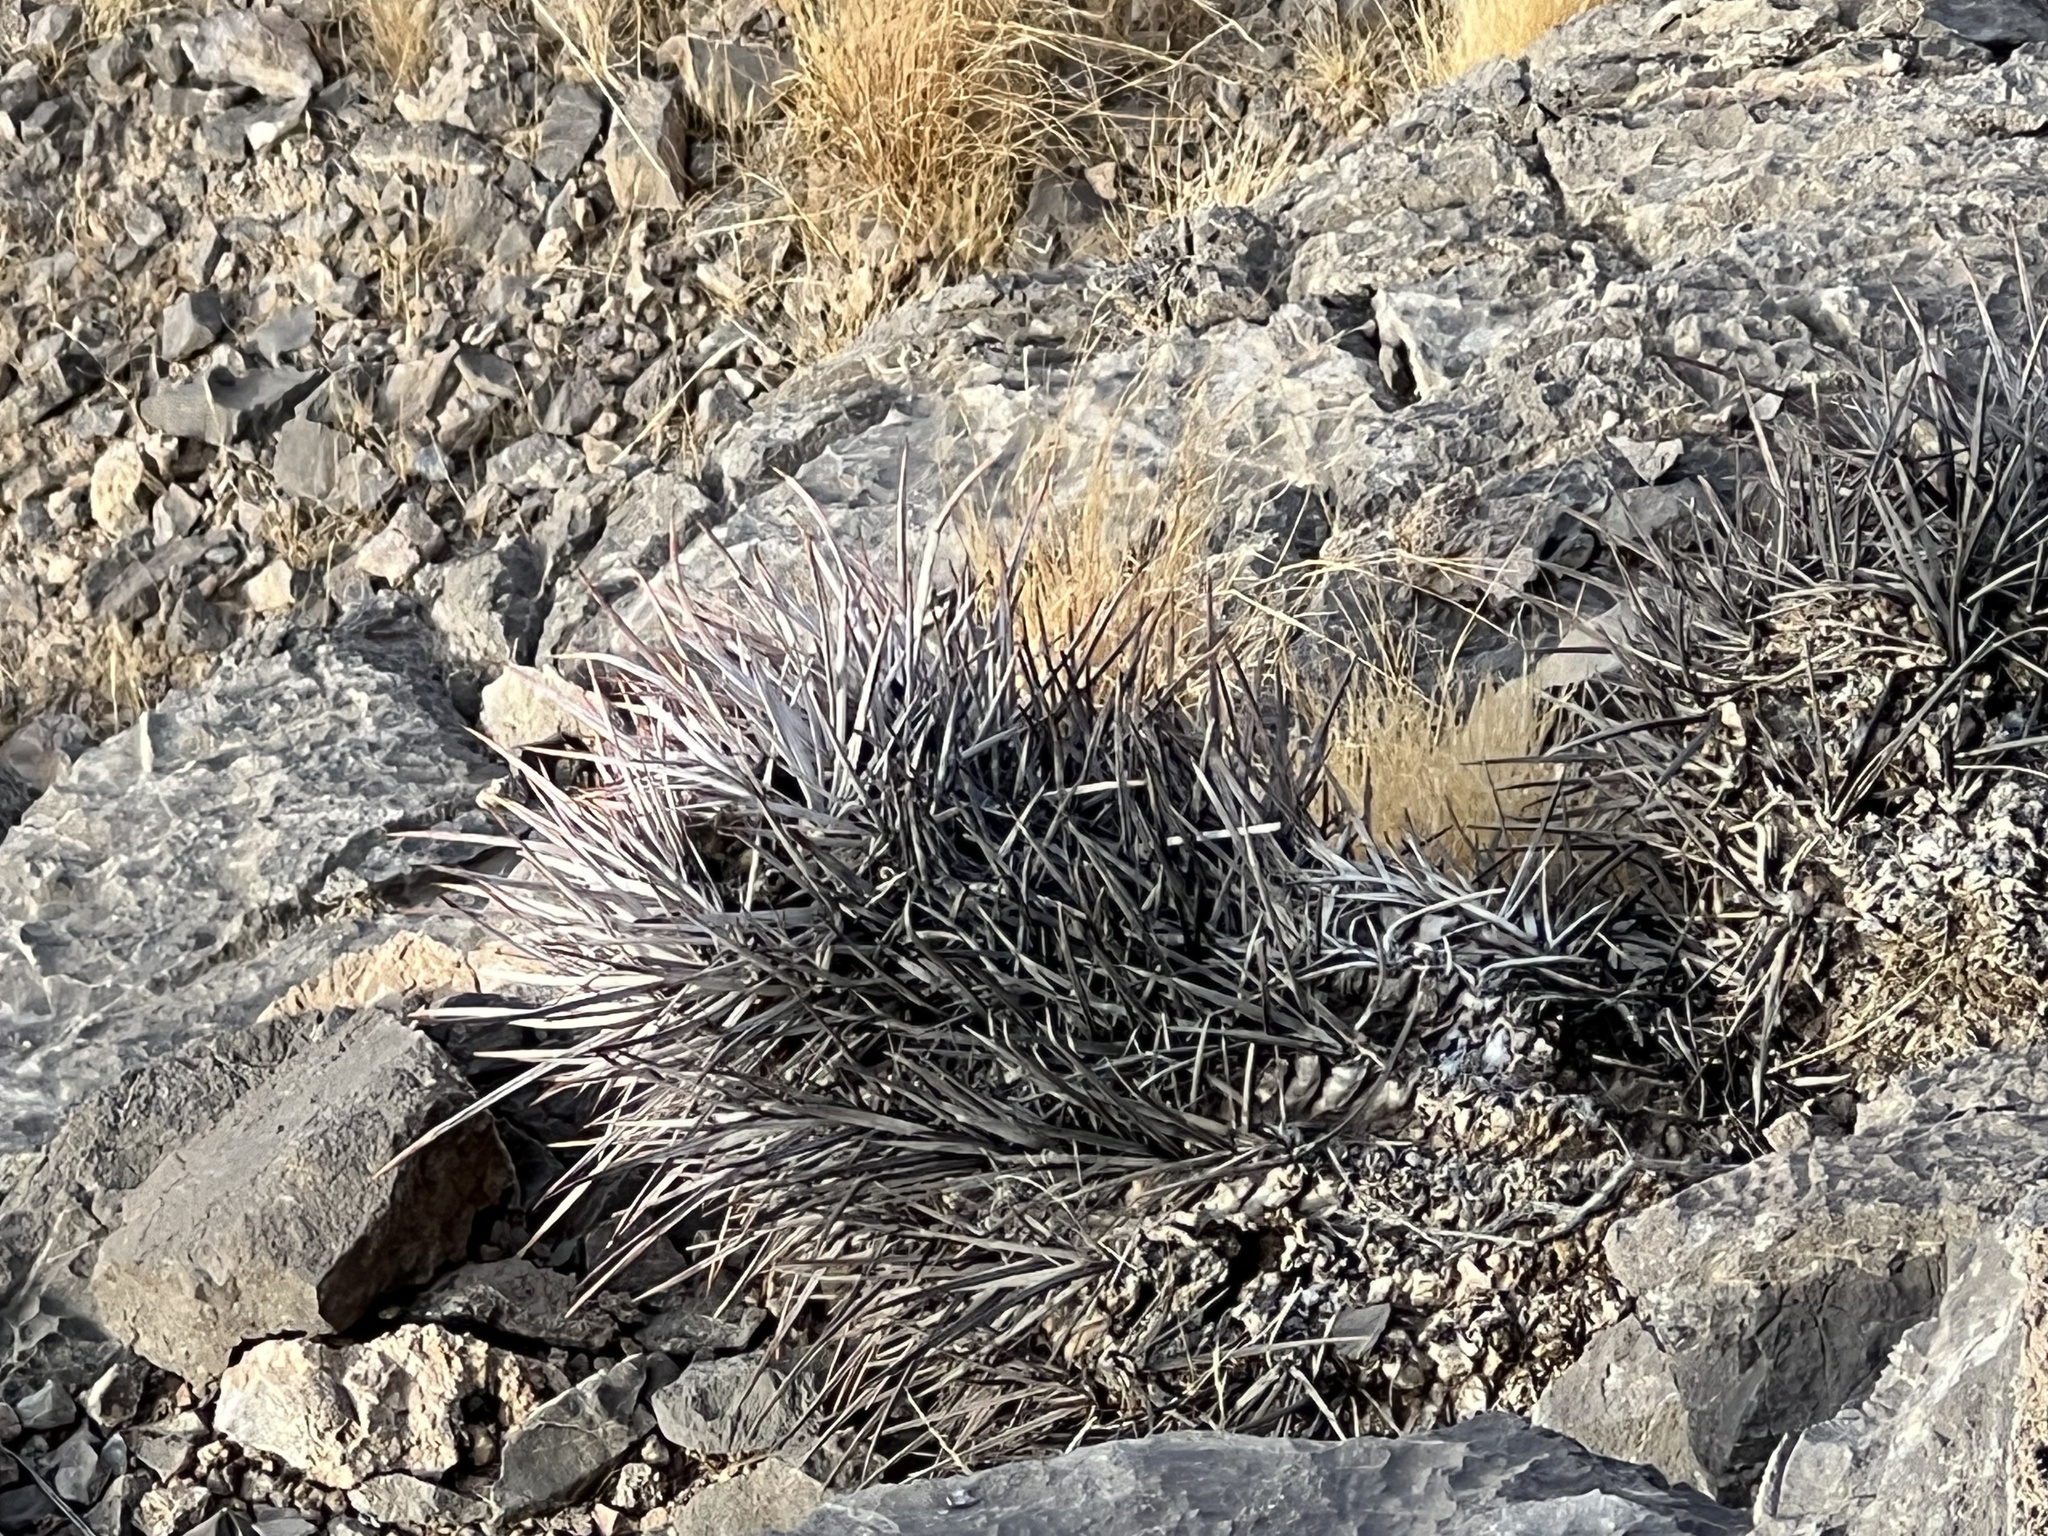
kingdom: Plantae
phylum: Tracheophyta
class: Magnoliopsida
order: Caryophyllales
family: Cactaceae
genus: Echinocactus
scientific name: Echinocactus polycephalus
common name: Cottontop cactus
